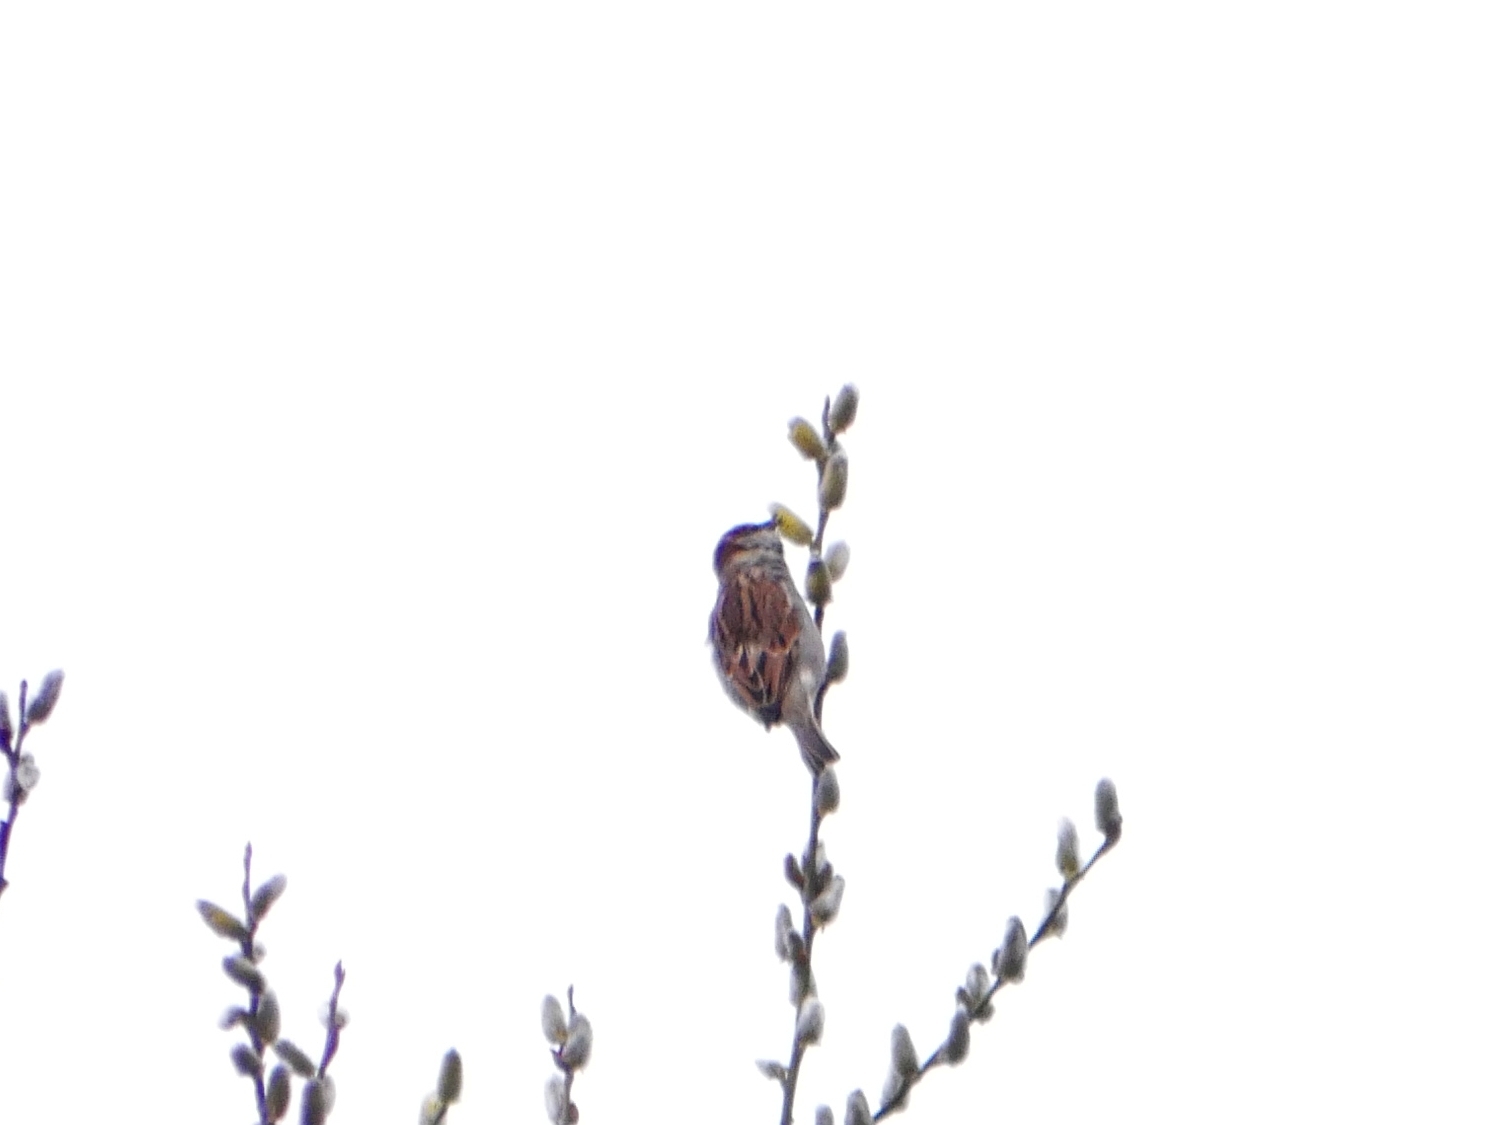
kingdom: Animalia
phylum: Chordata
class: Aves
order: Passeriformes
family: Passeridae
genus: Passer
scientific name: Passer domesticus
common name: House sparrow
